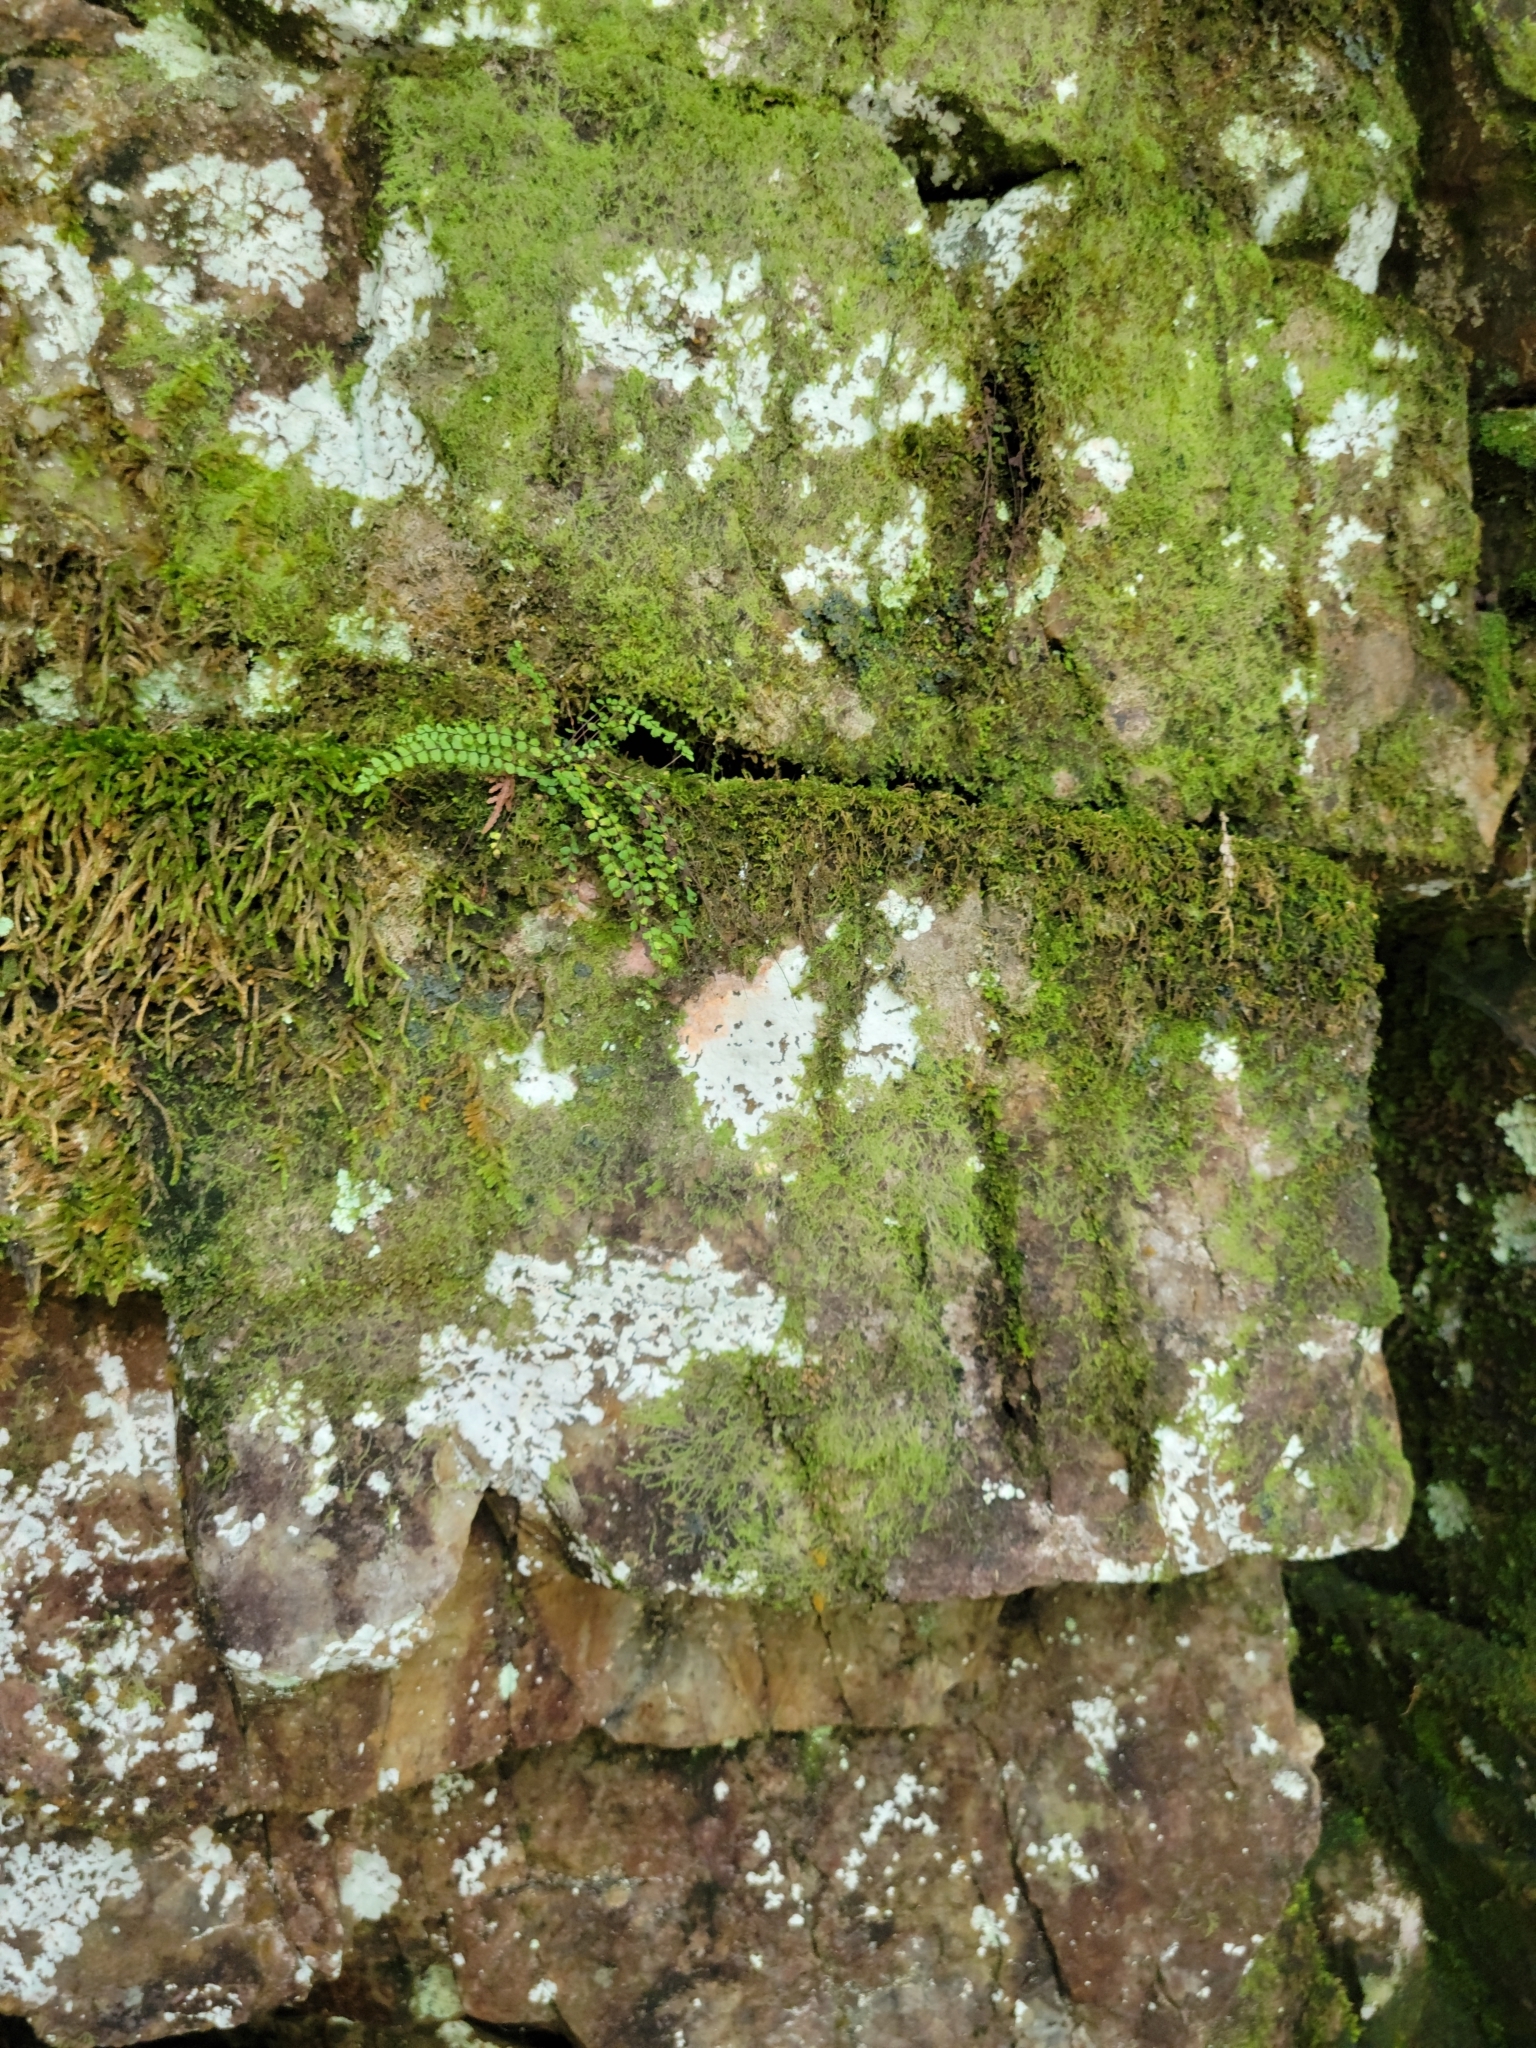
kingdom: Plantae
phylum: Tracheophyta
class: Polypodiopsida
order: Polypodiales
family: Aspleniaceae
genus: Asplenium
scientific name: Asplenium trichomanes
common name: Maidenhair spleenwort
